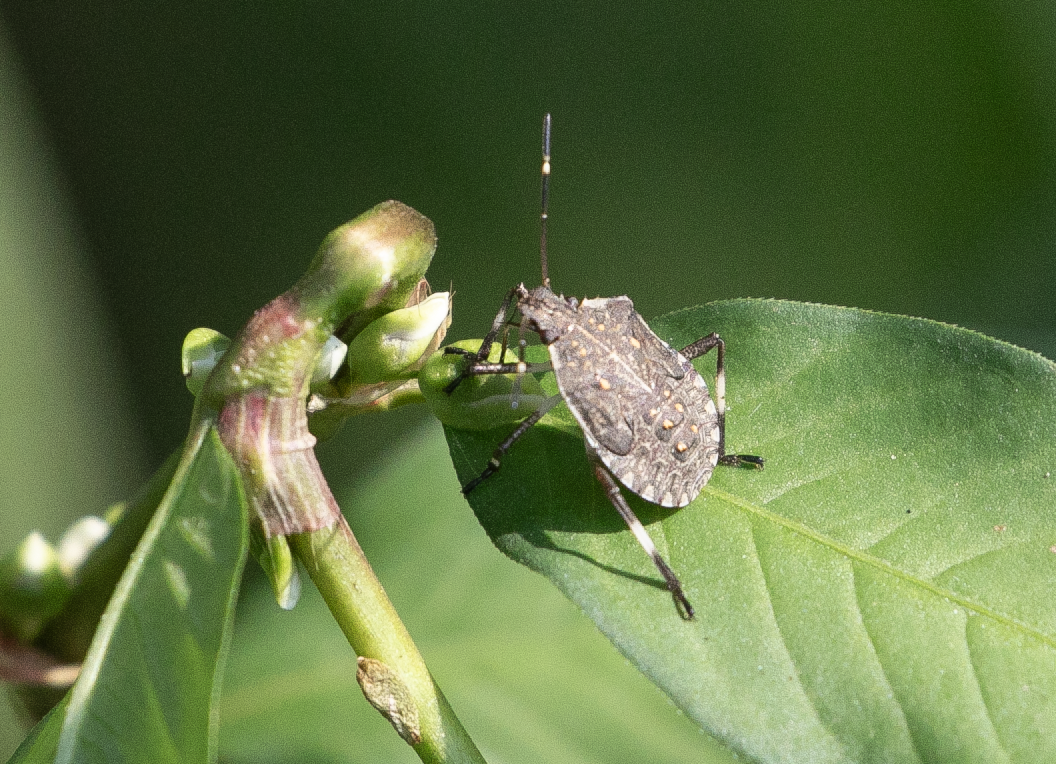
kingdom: Animalia
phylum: Arthropoda
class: Insecta
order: Hemiptera
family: Pentatomidae
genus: Halyomorpha
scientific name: Halyomorpha halys
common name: Brown marmorated stink bug
